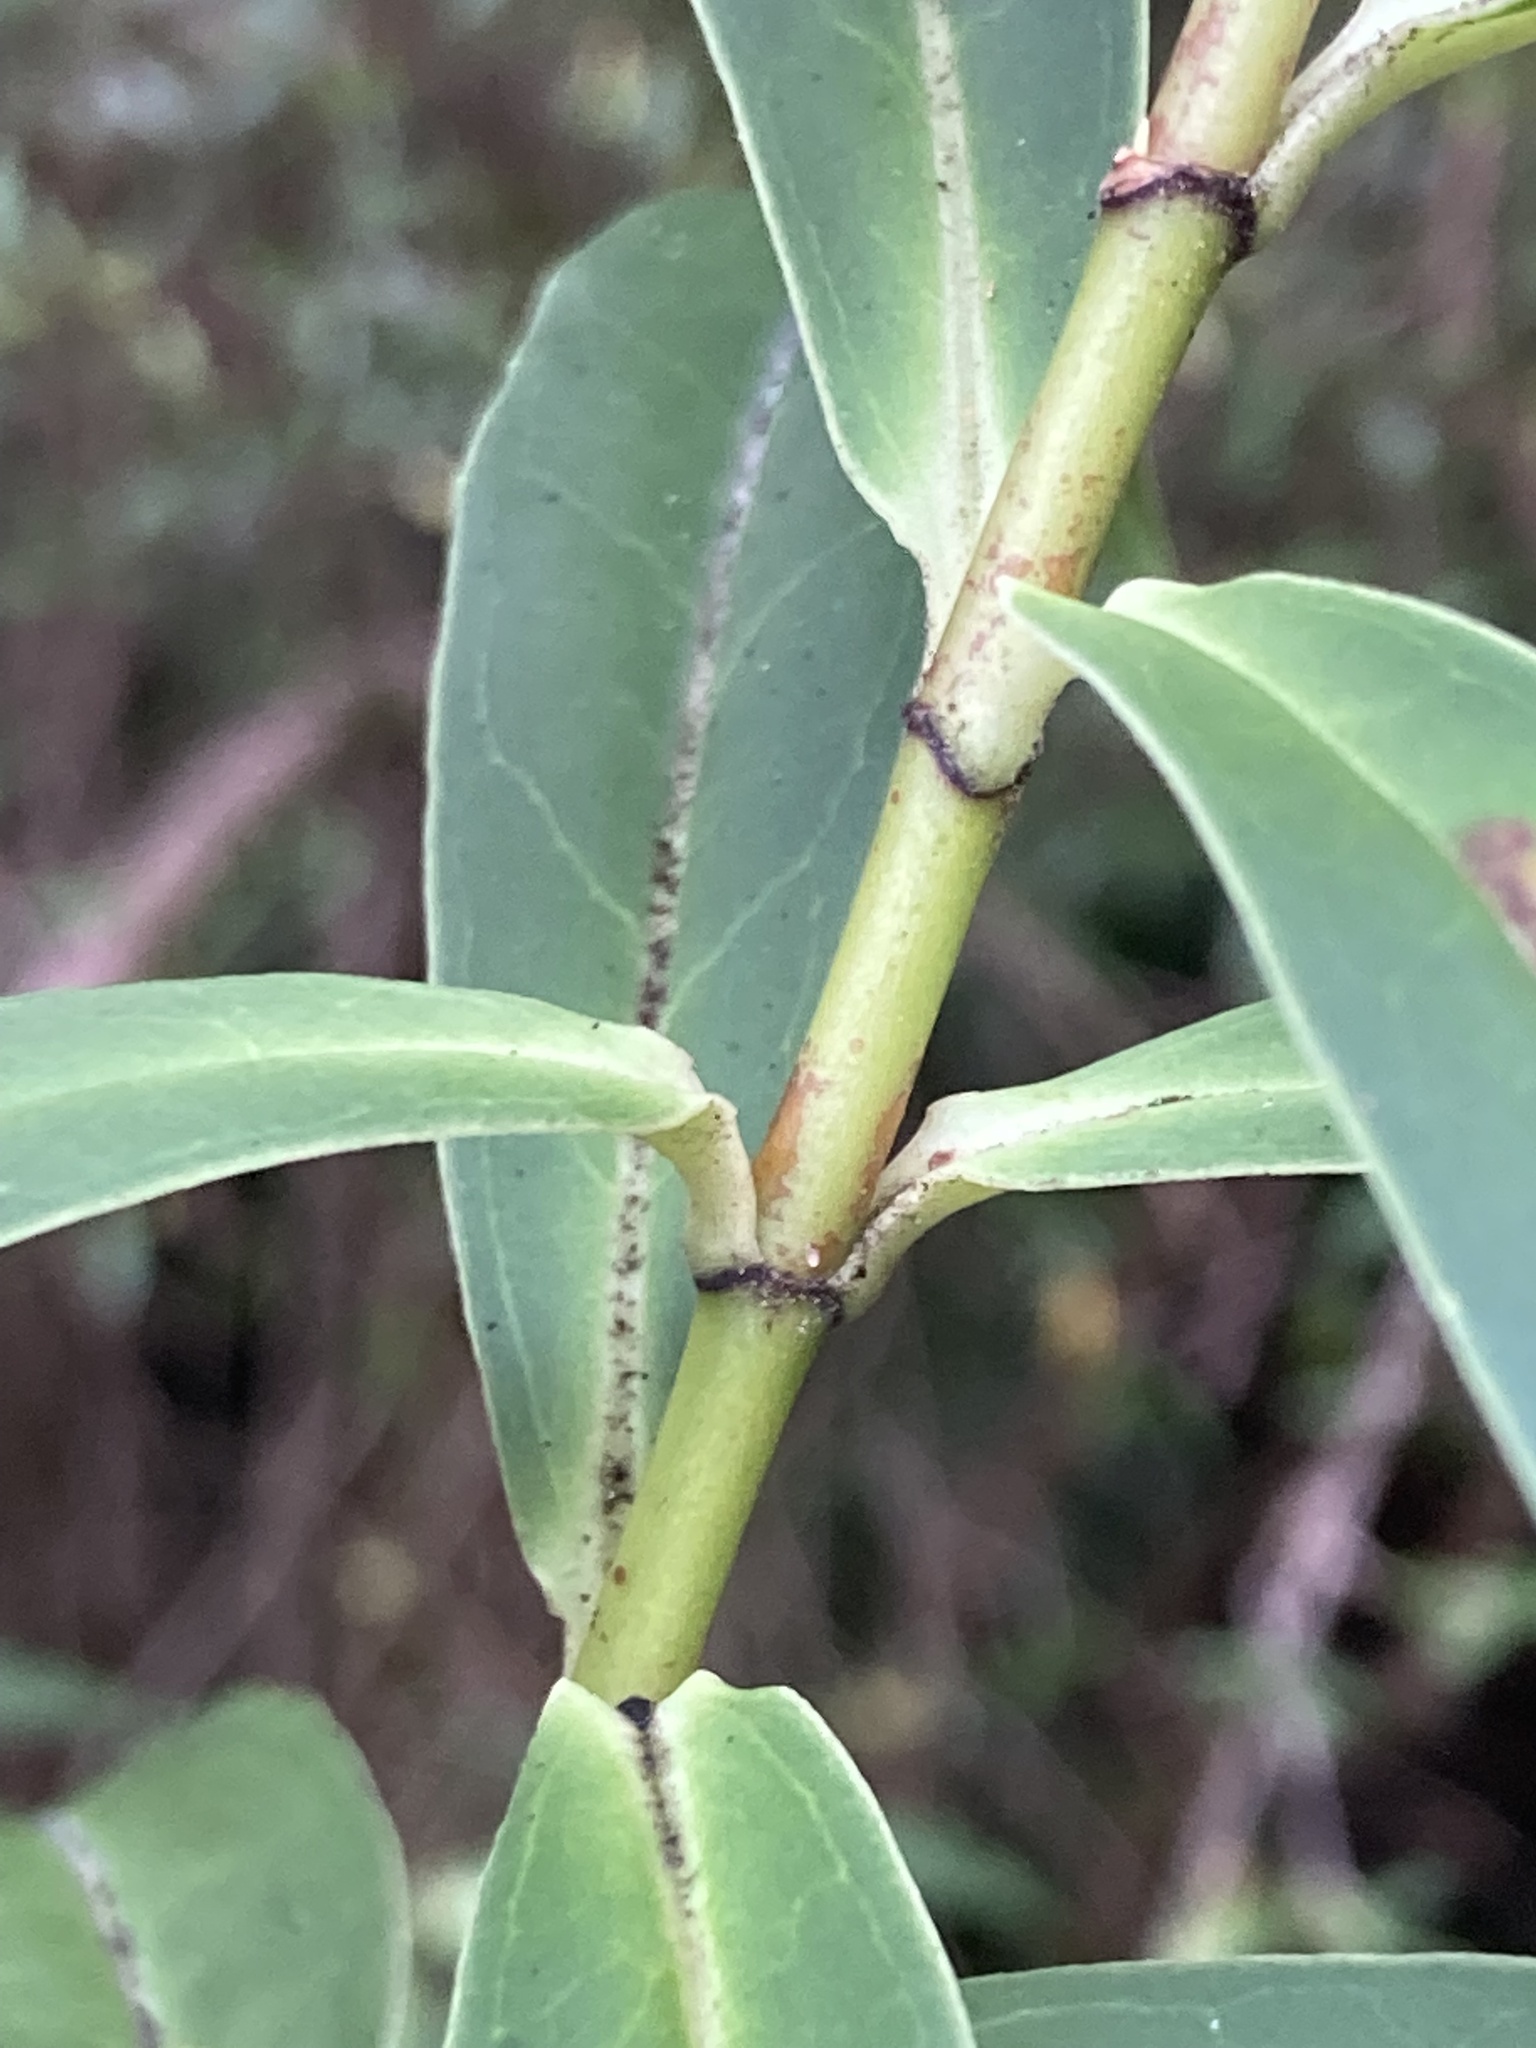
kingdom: Plantae
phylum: Tracheophyta
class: Magnoliopsida
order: Lamiales
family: Plantaginaceae
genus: Veronica
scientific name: Veronica salicifolia
